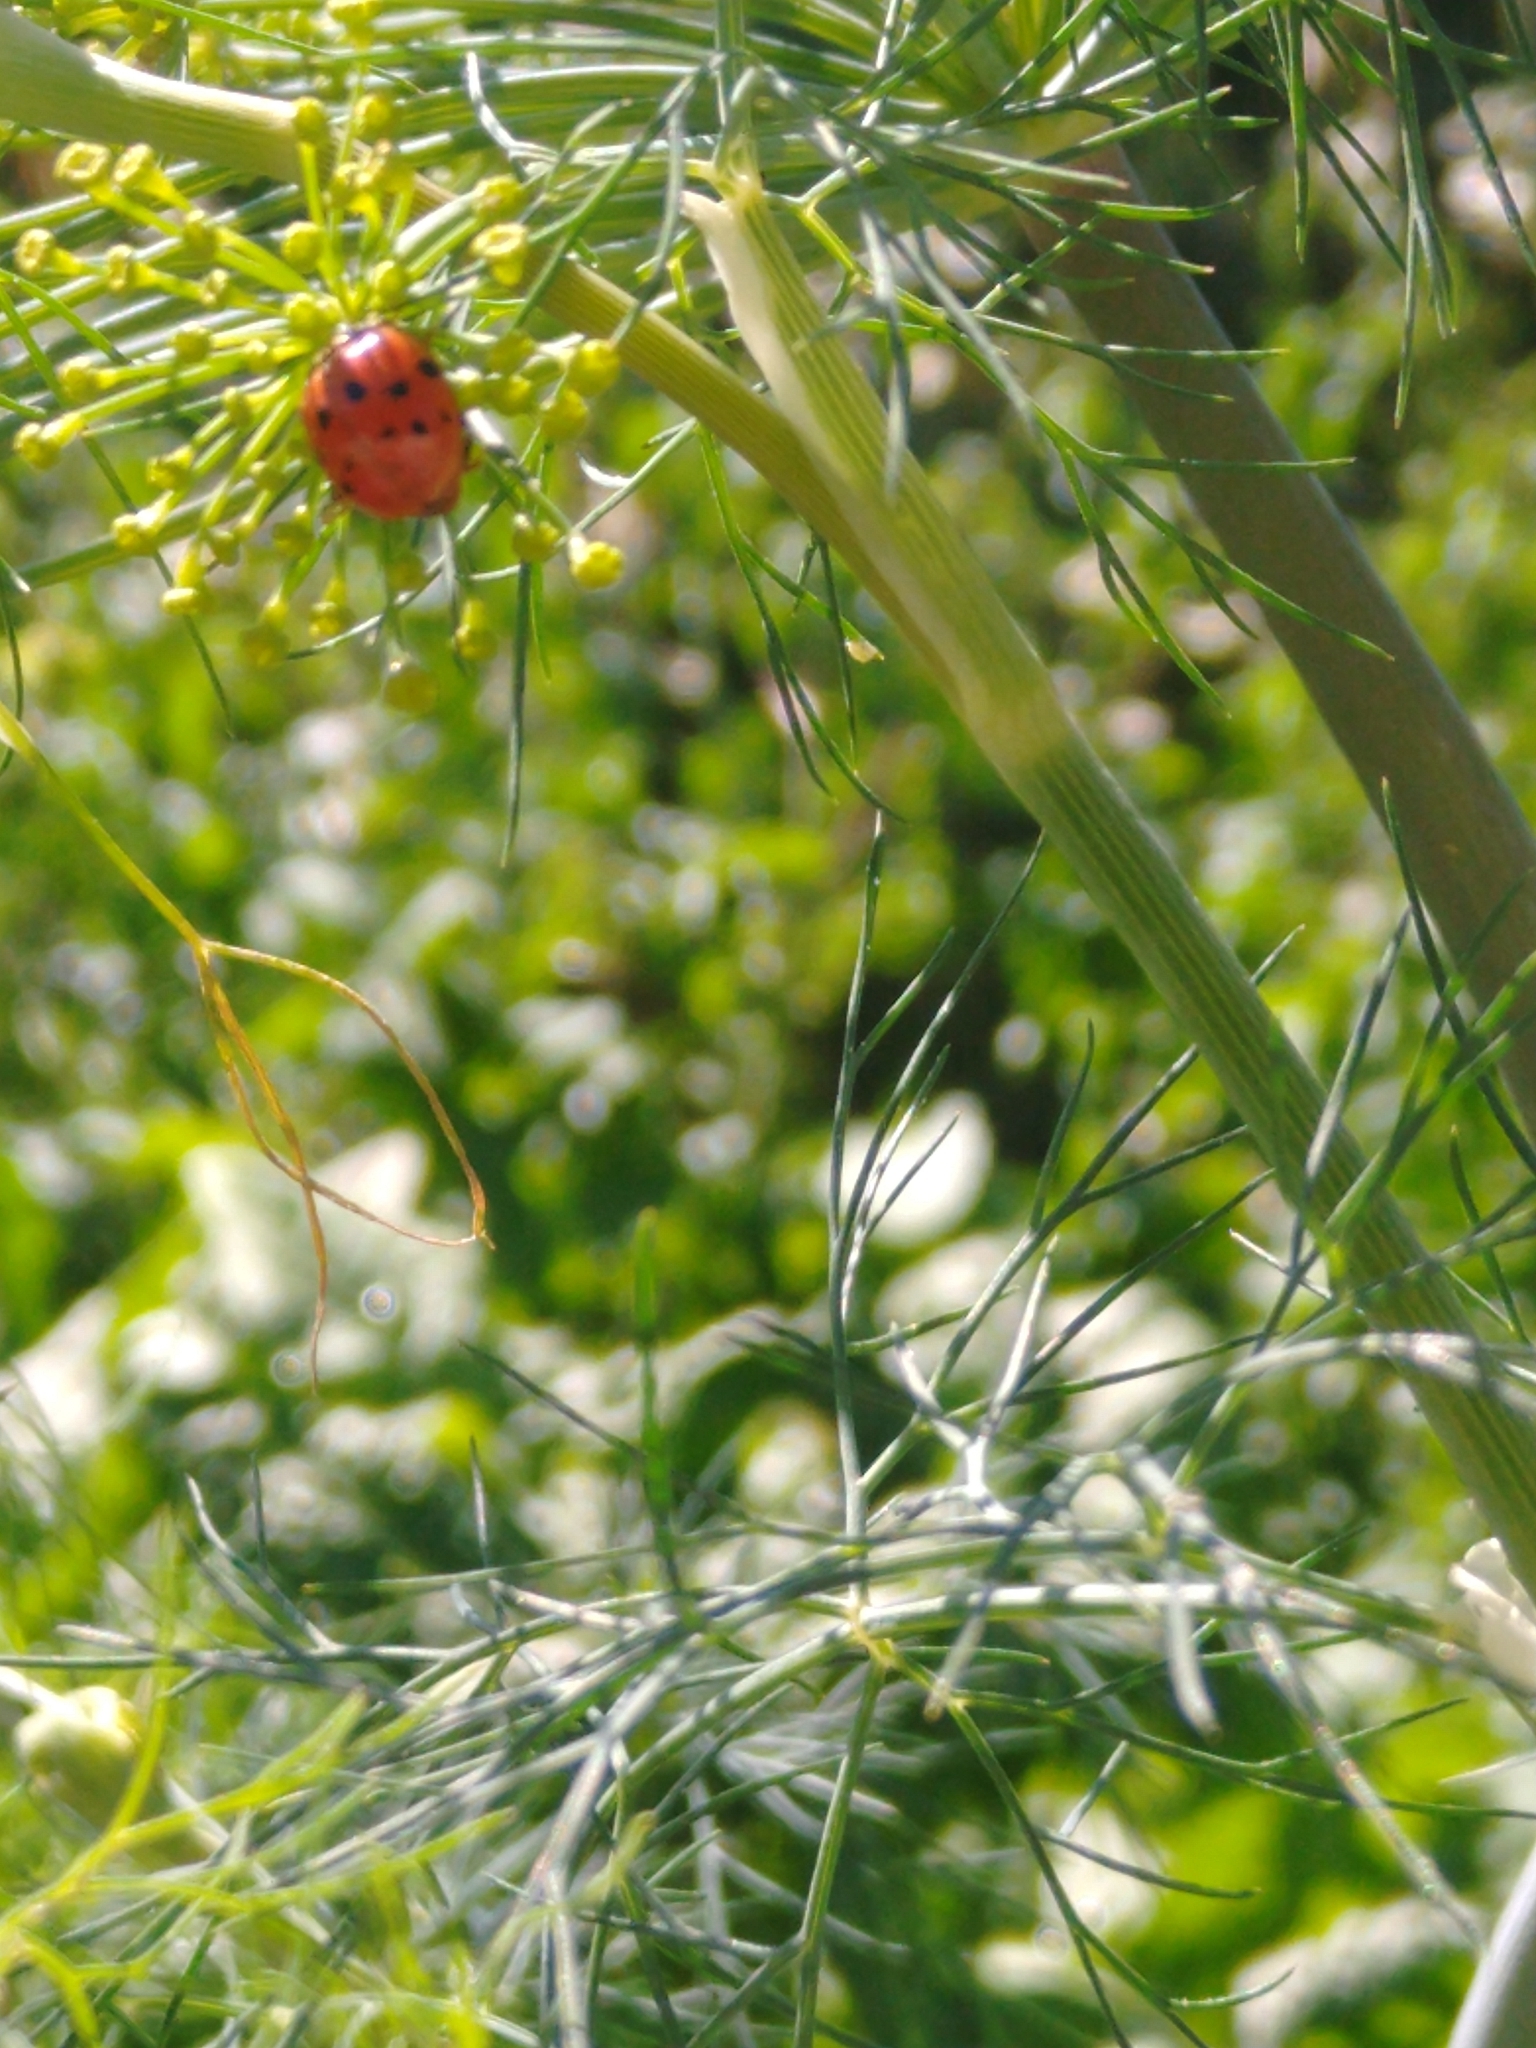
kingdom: Animalia
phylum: Arthropoda
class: Insecta
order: Coleoptera
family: Coccinellidae
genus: Harmonia
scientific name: Harmonia axyridis
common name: Harlequin ladybird
